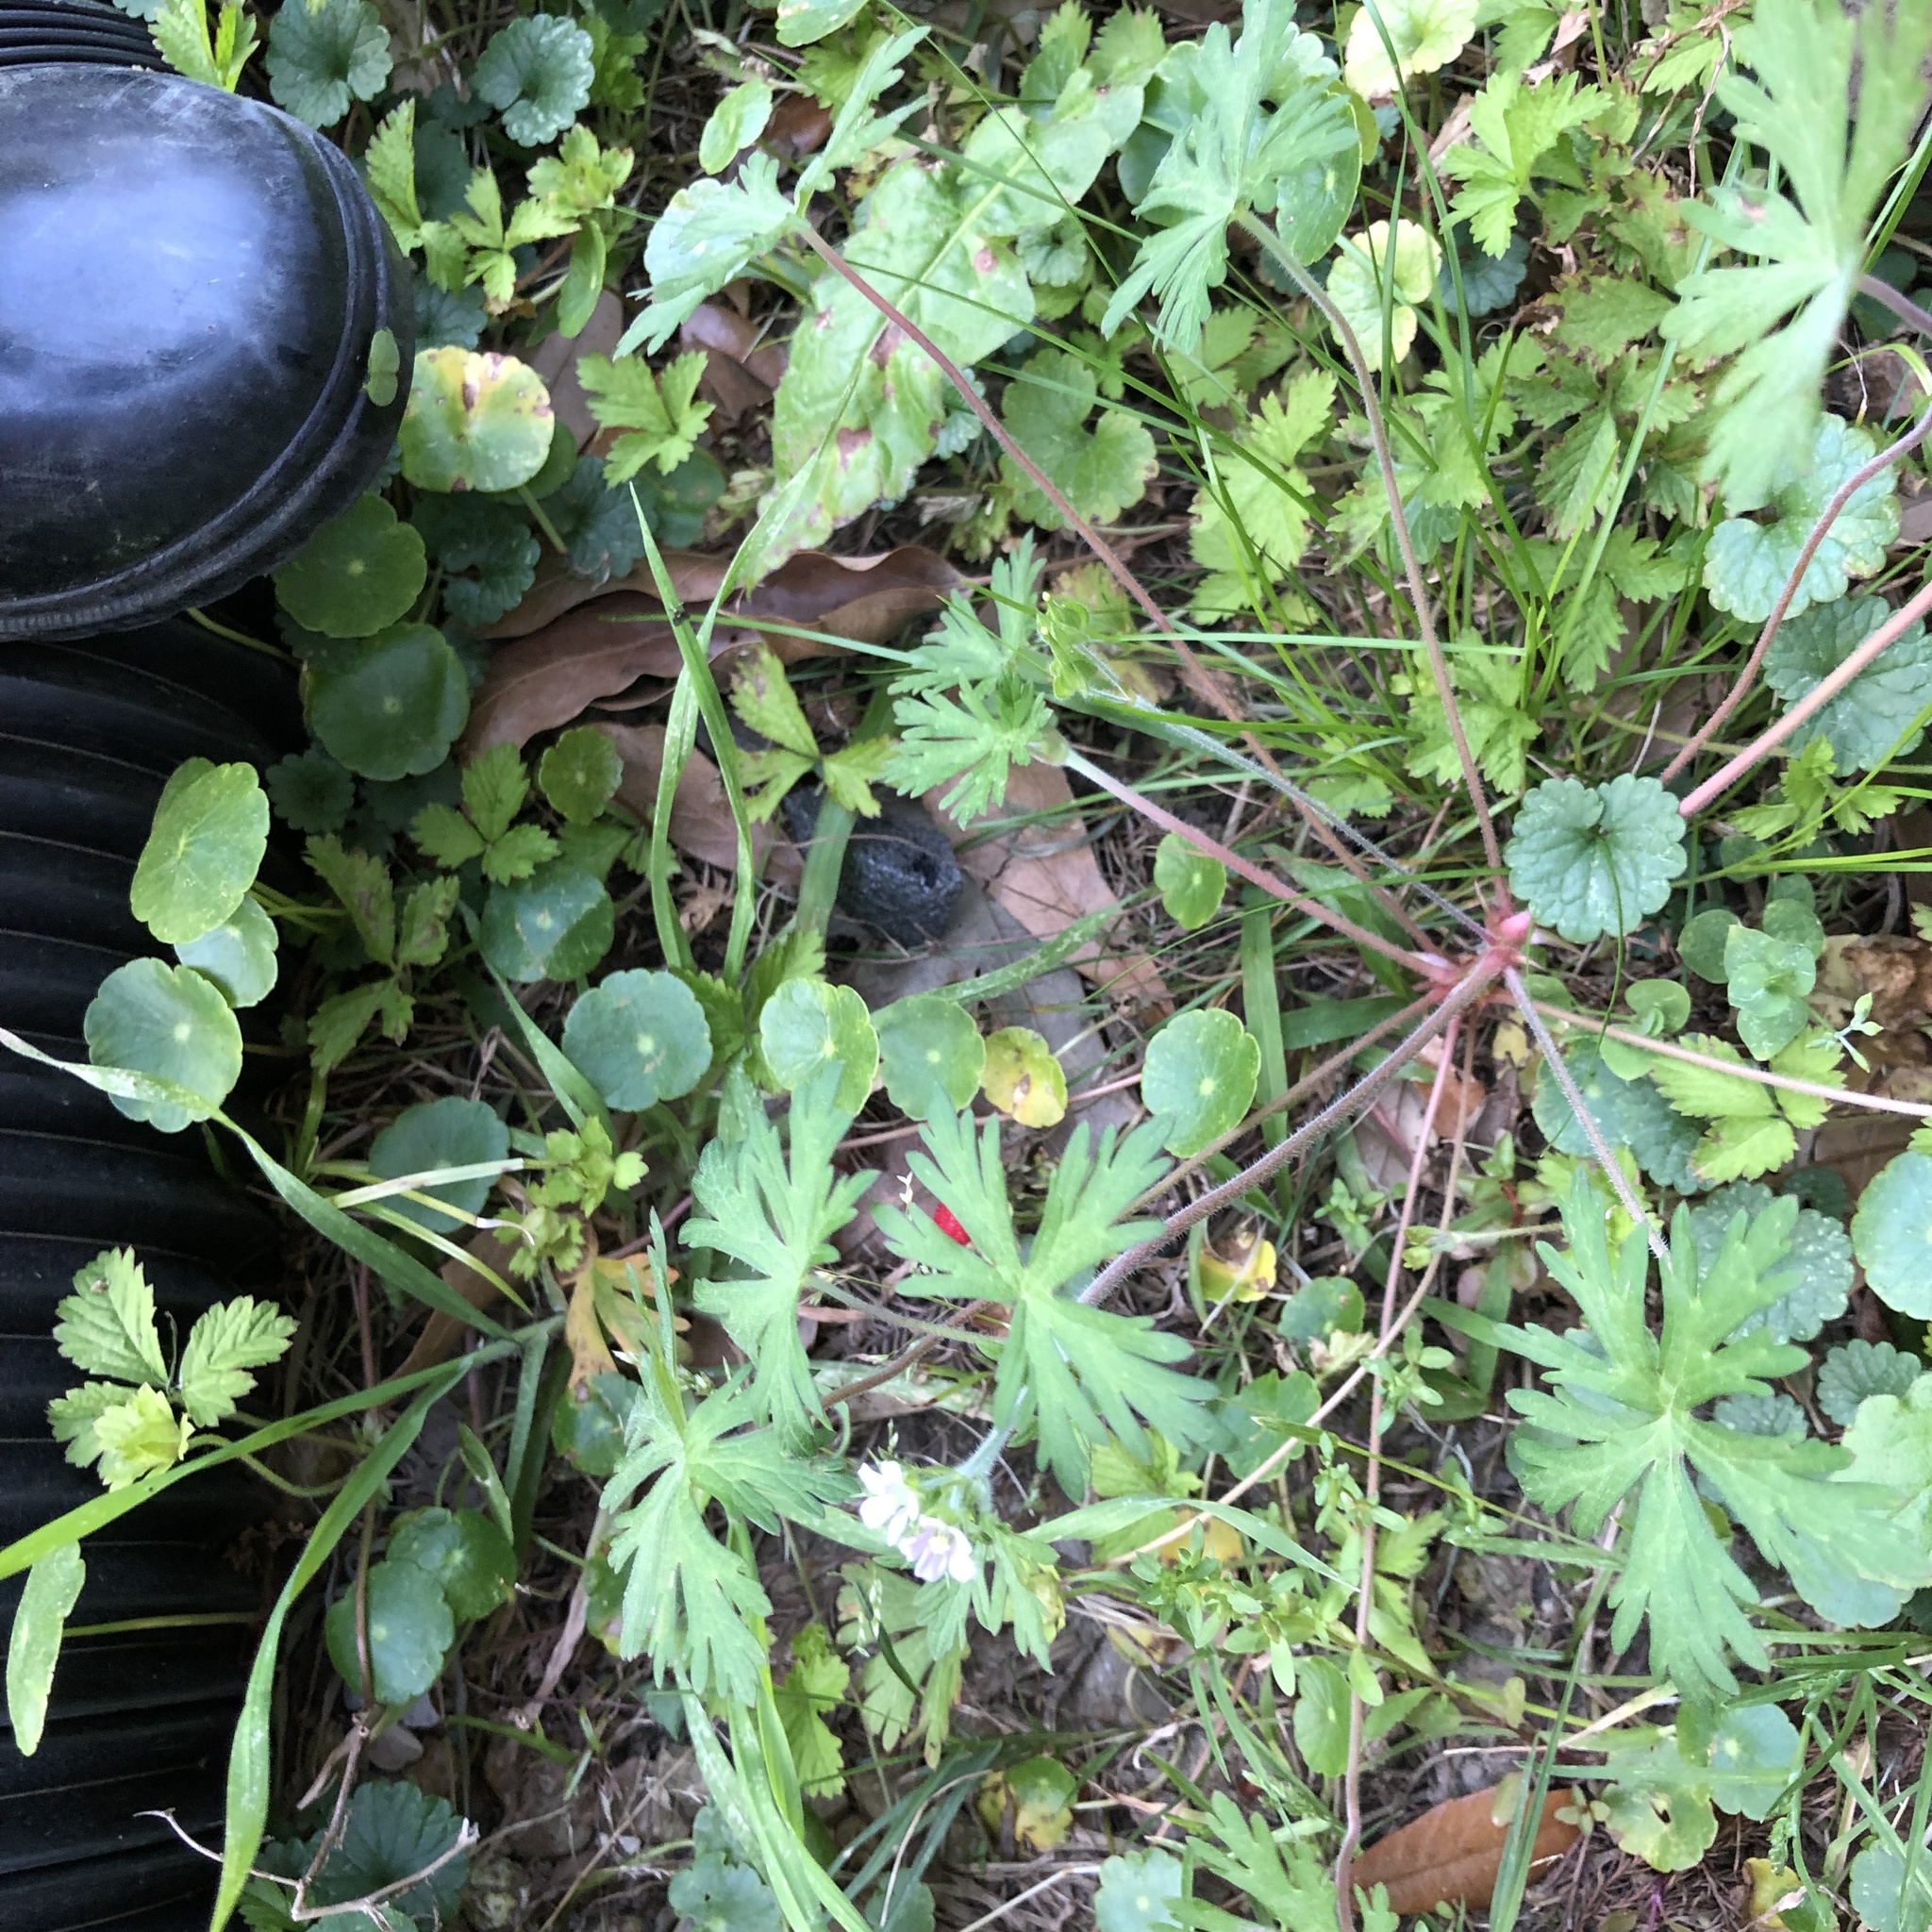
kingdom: Plantae
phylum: Tracheophyta
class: Magnoliopsida
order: Geraniales
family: Geraniaceae
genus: Geranium
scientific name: Geranium carolinianum
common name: Carolina crane's-bill
